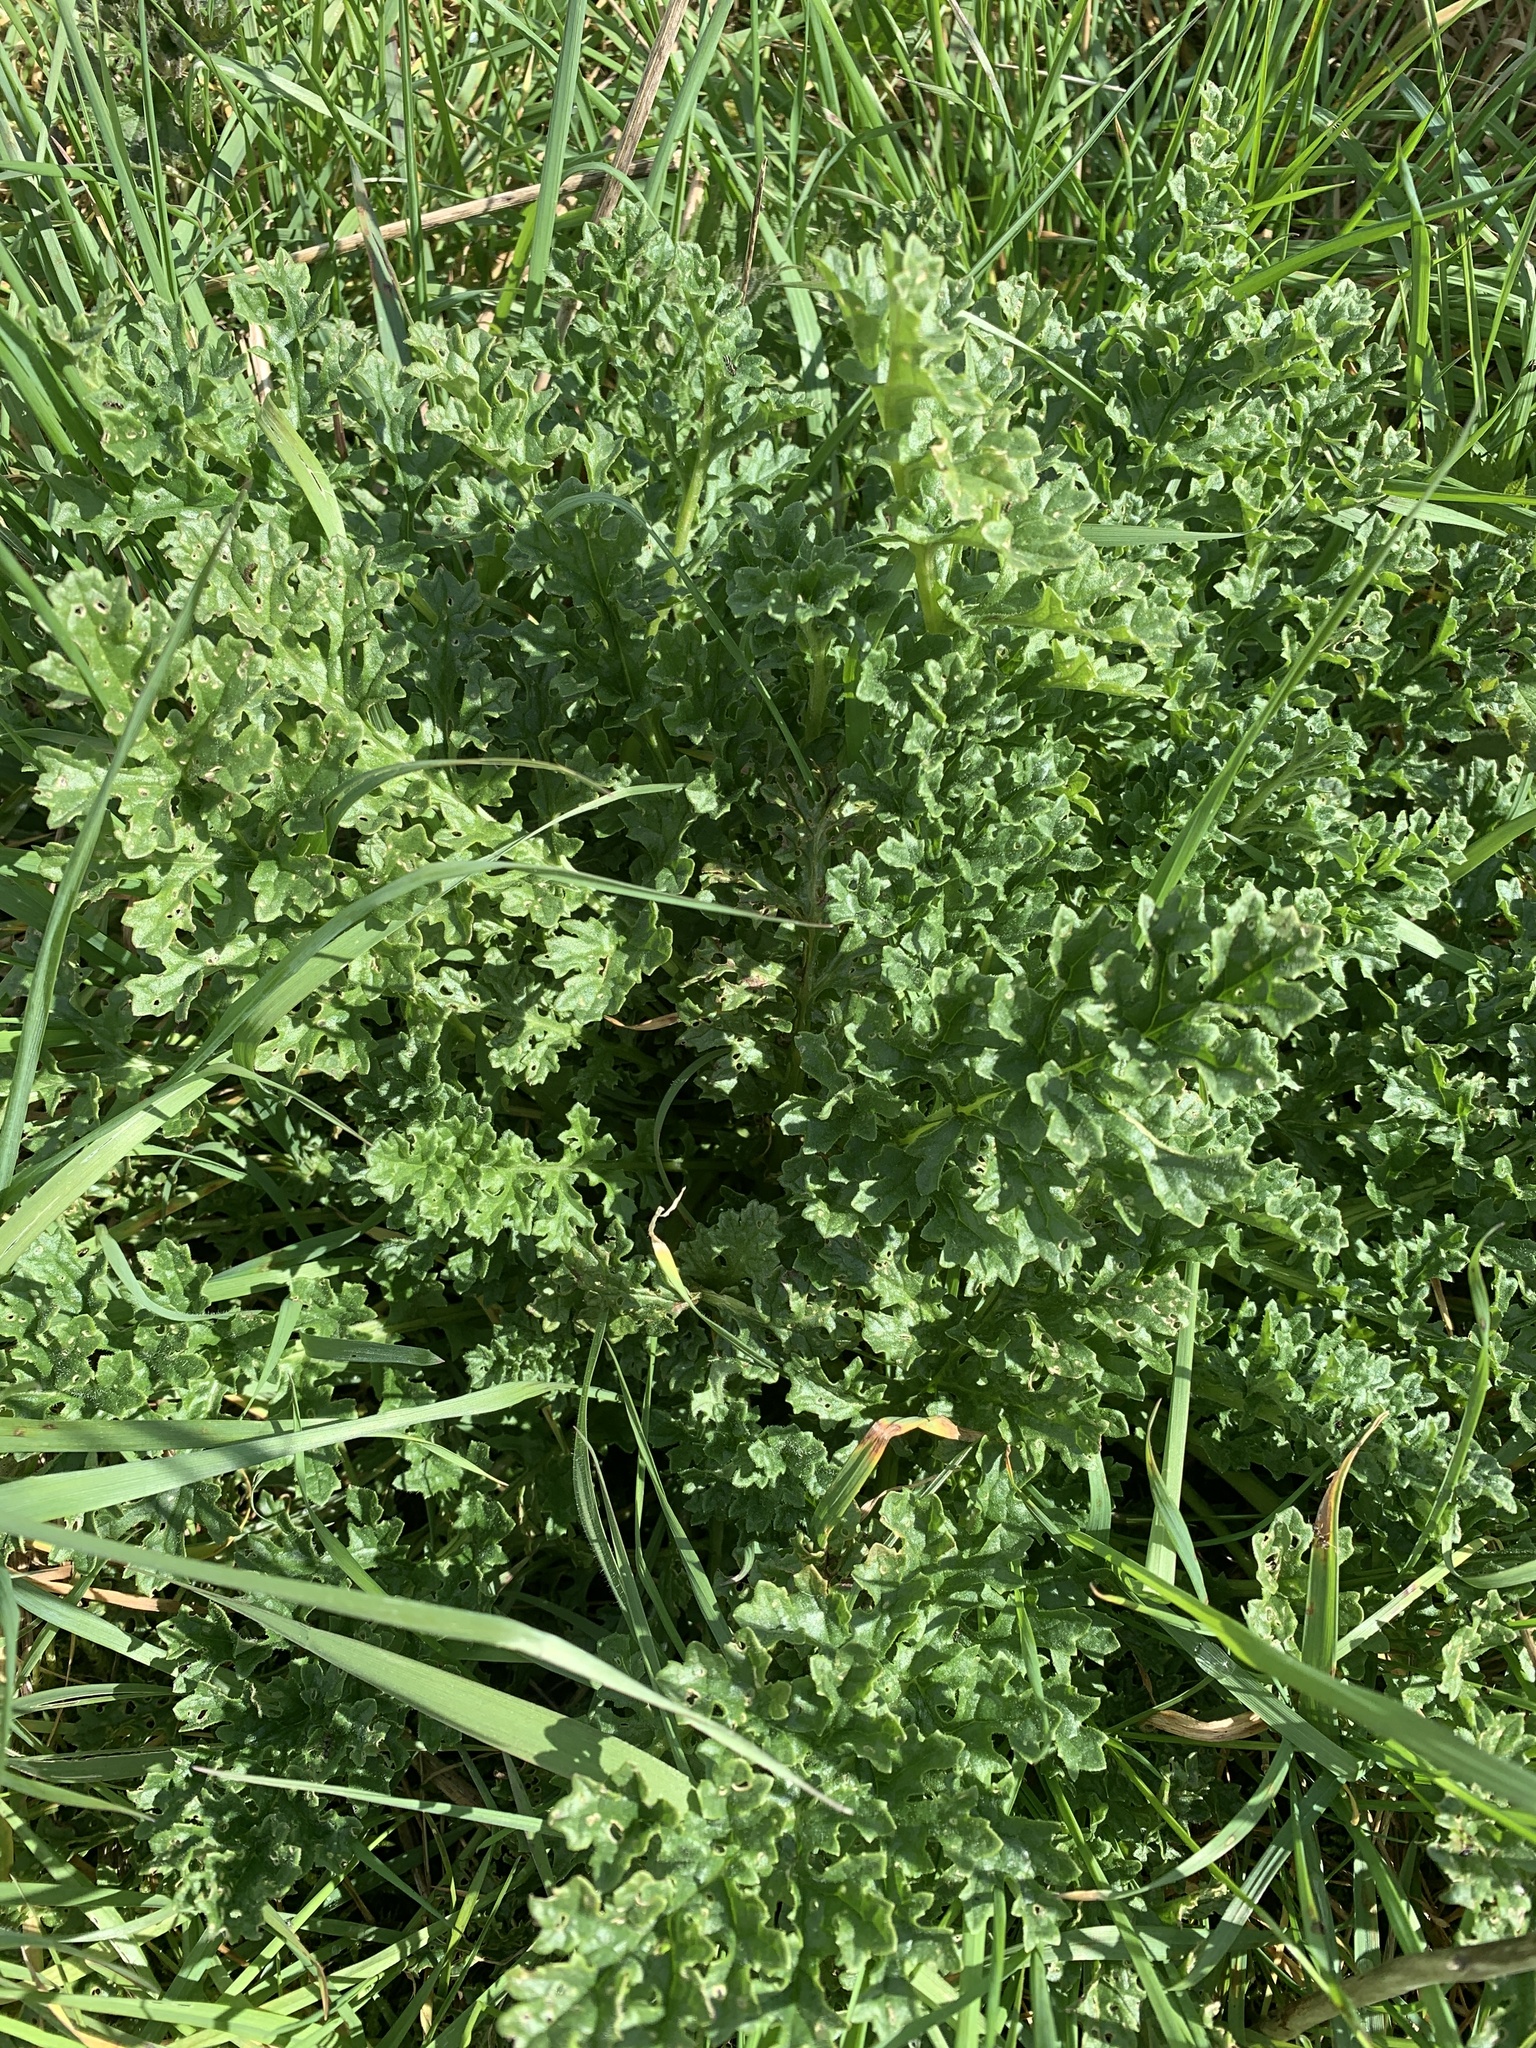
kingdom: Plantae
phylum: Tracheophyta
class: Magnoliopsida
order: Asterales
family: Asteraceae
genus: Jacobaea
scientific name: Jacobaea vulgaris
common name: Stinking willie
